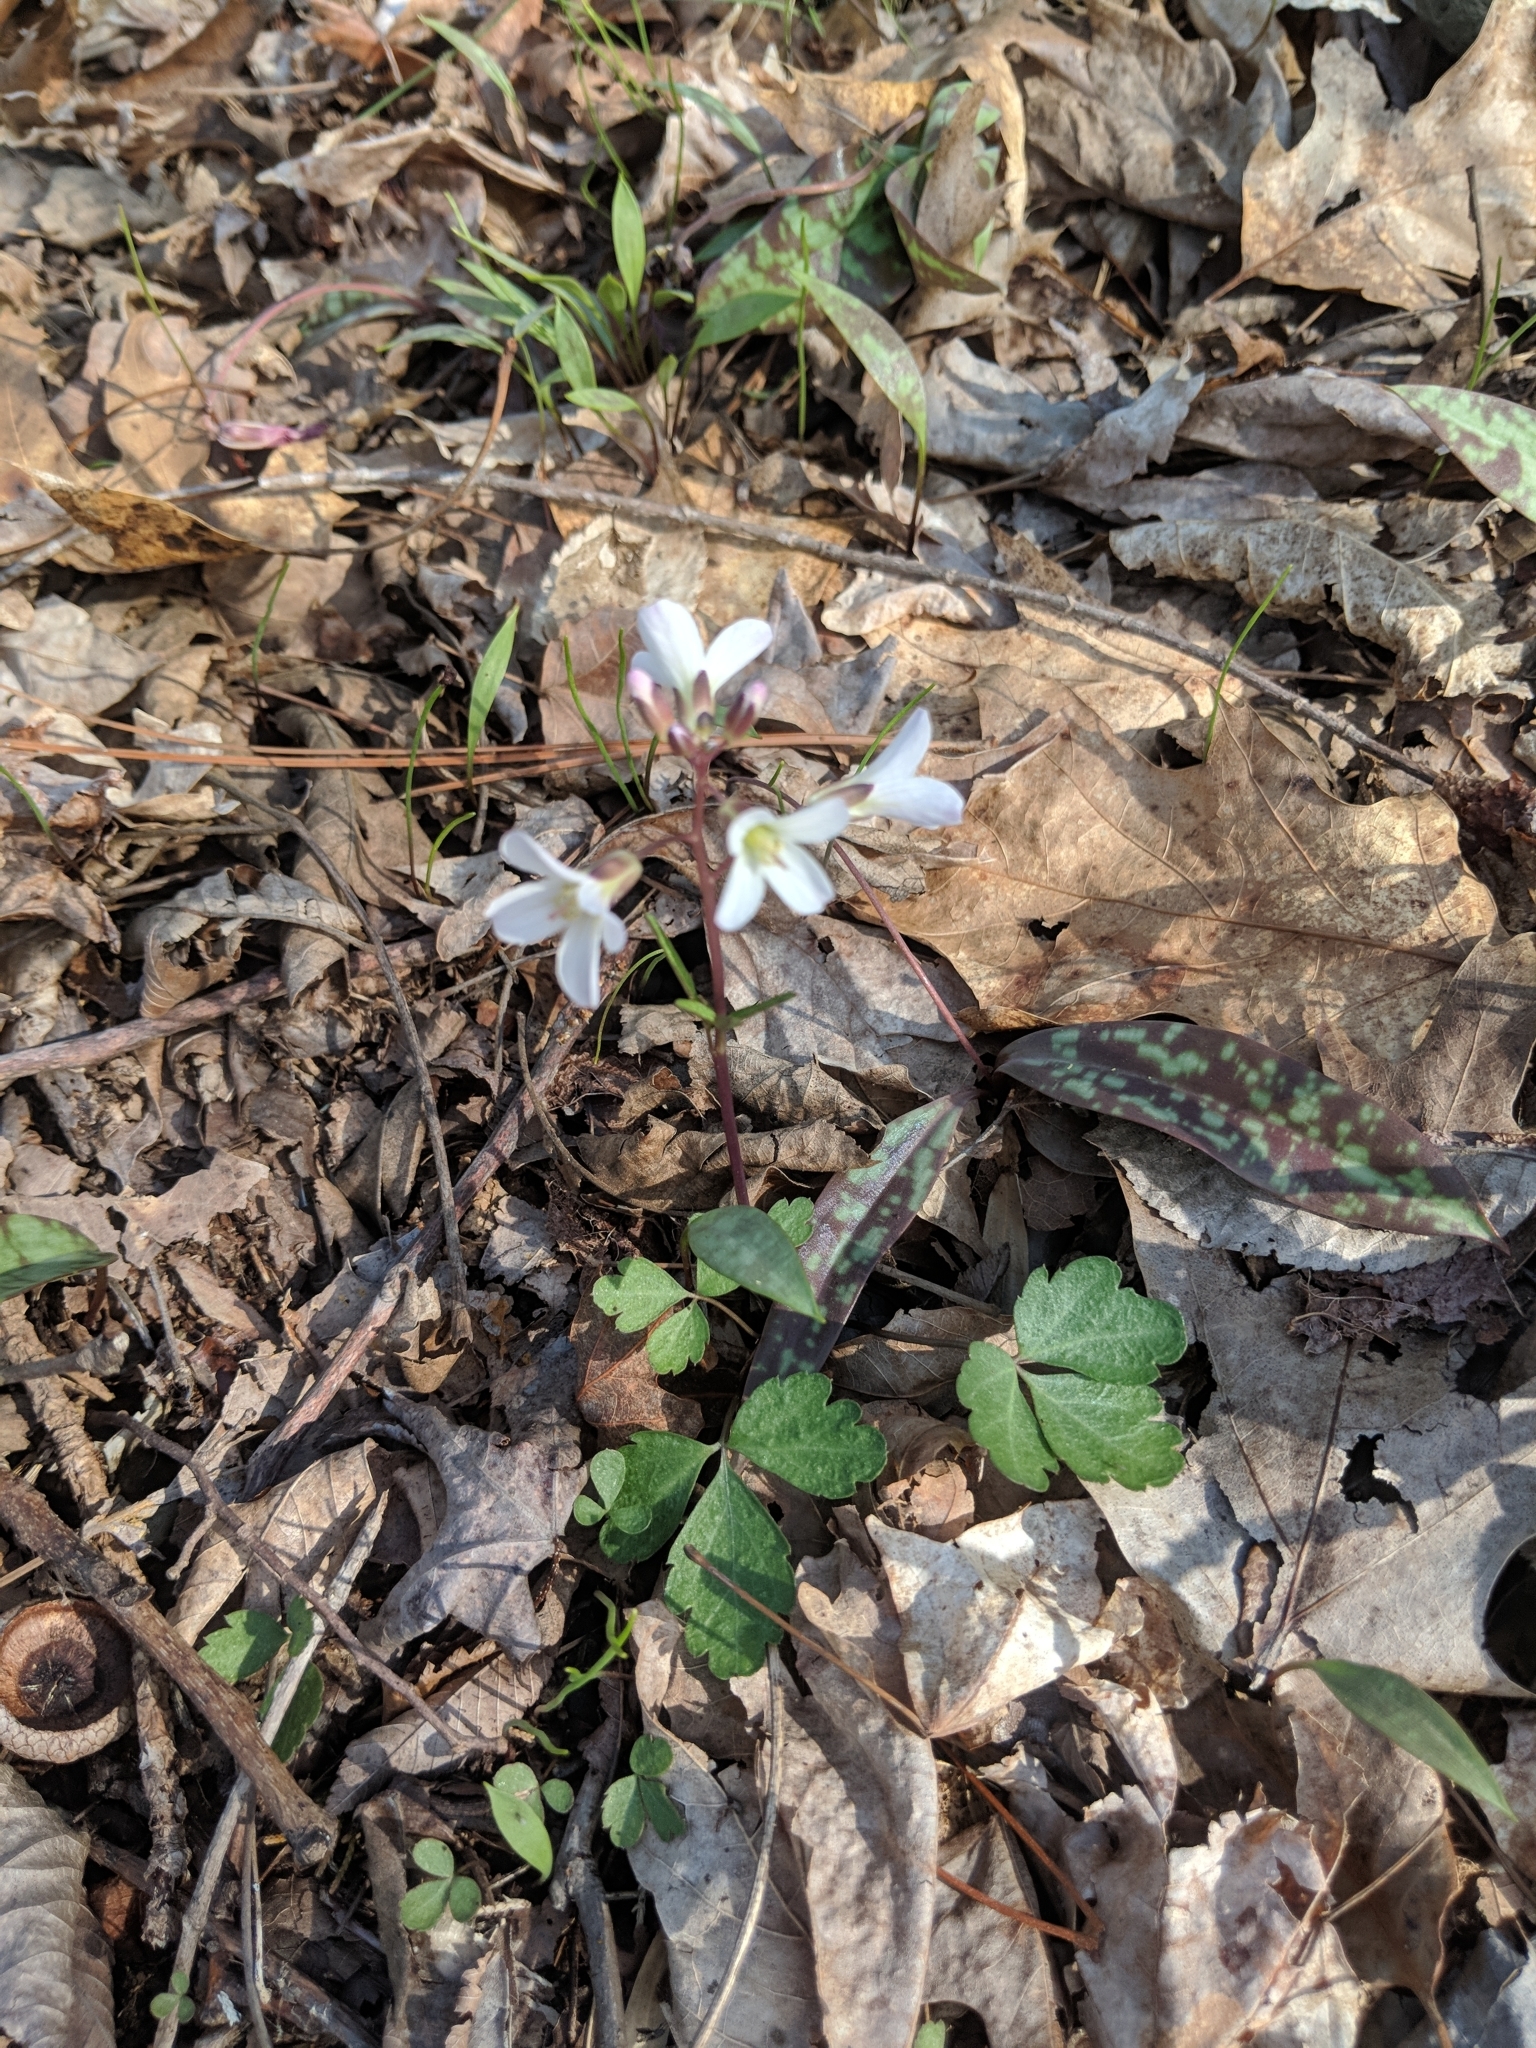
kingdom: Plantae
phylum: Tracheophyta
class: Magnoliopsida
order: Brassicales
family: Brassicaceae
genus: Cardamine
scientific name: Cardamine diphylla
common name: Broad-leaved toothwort
